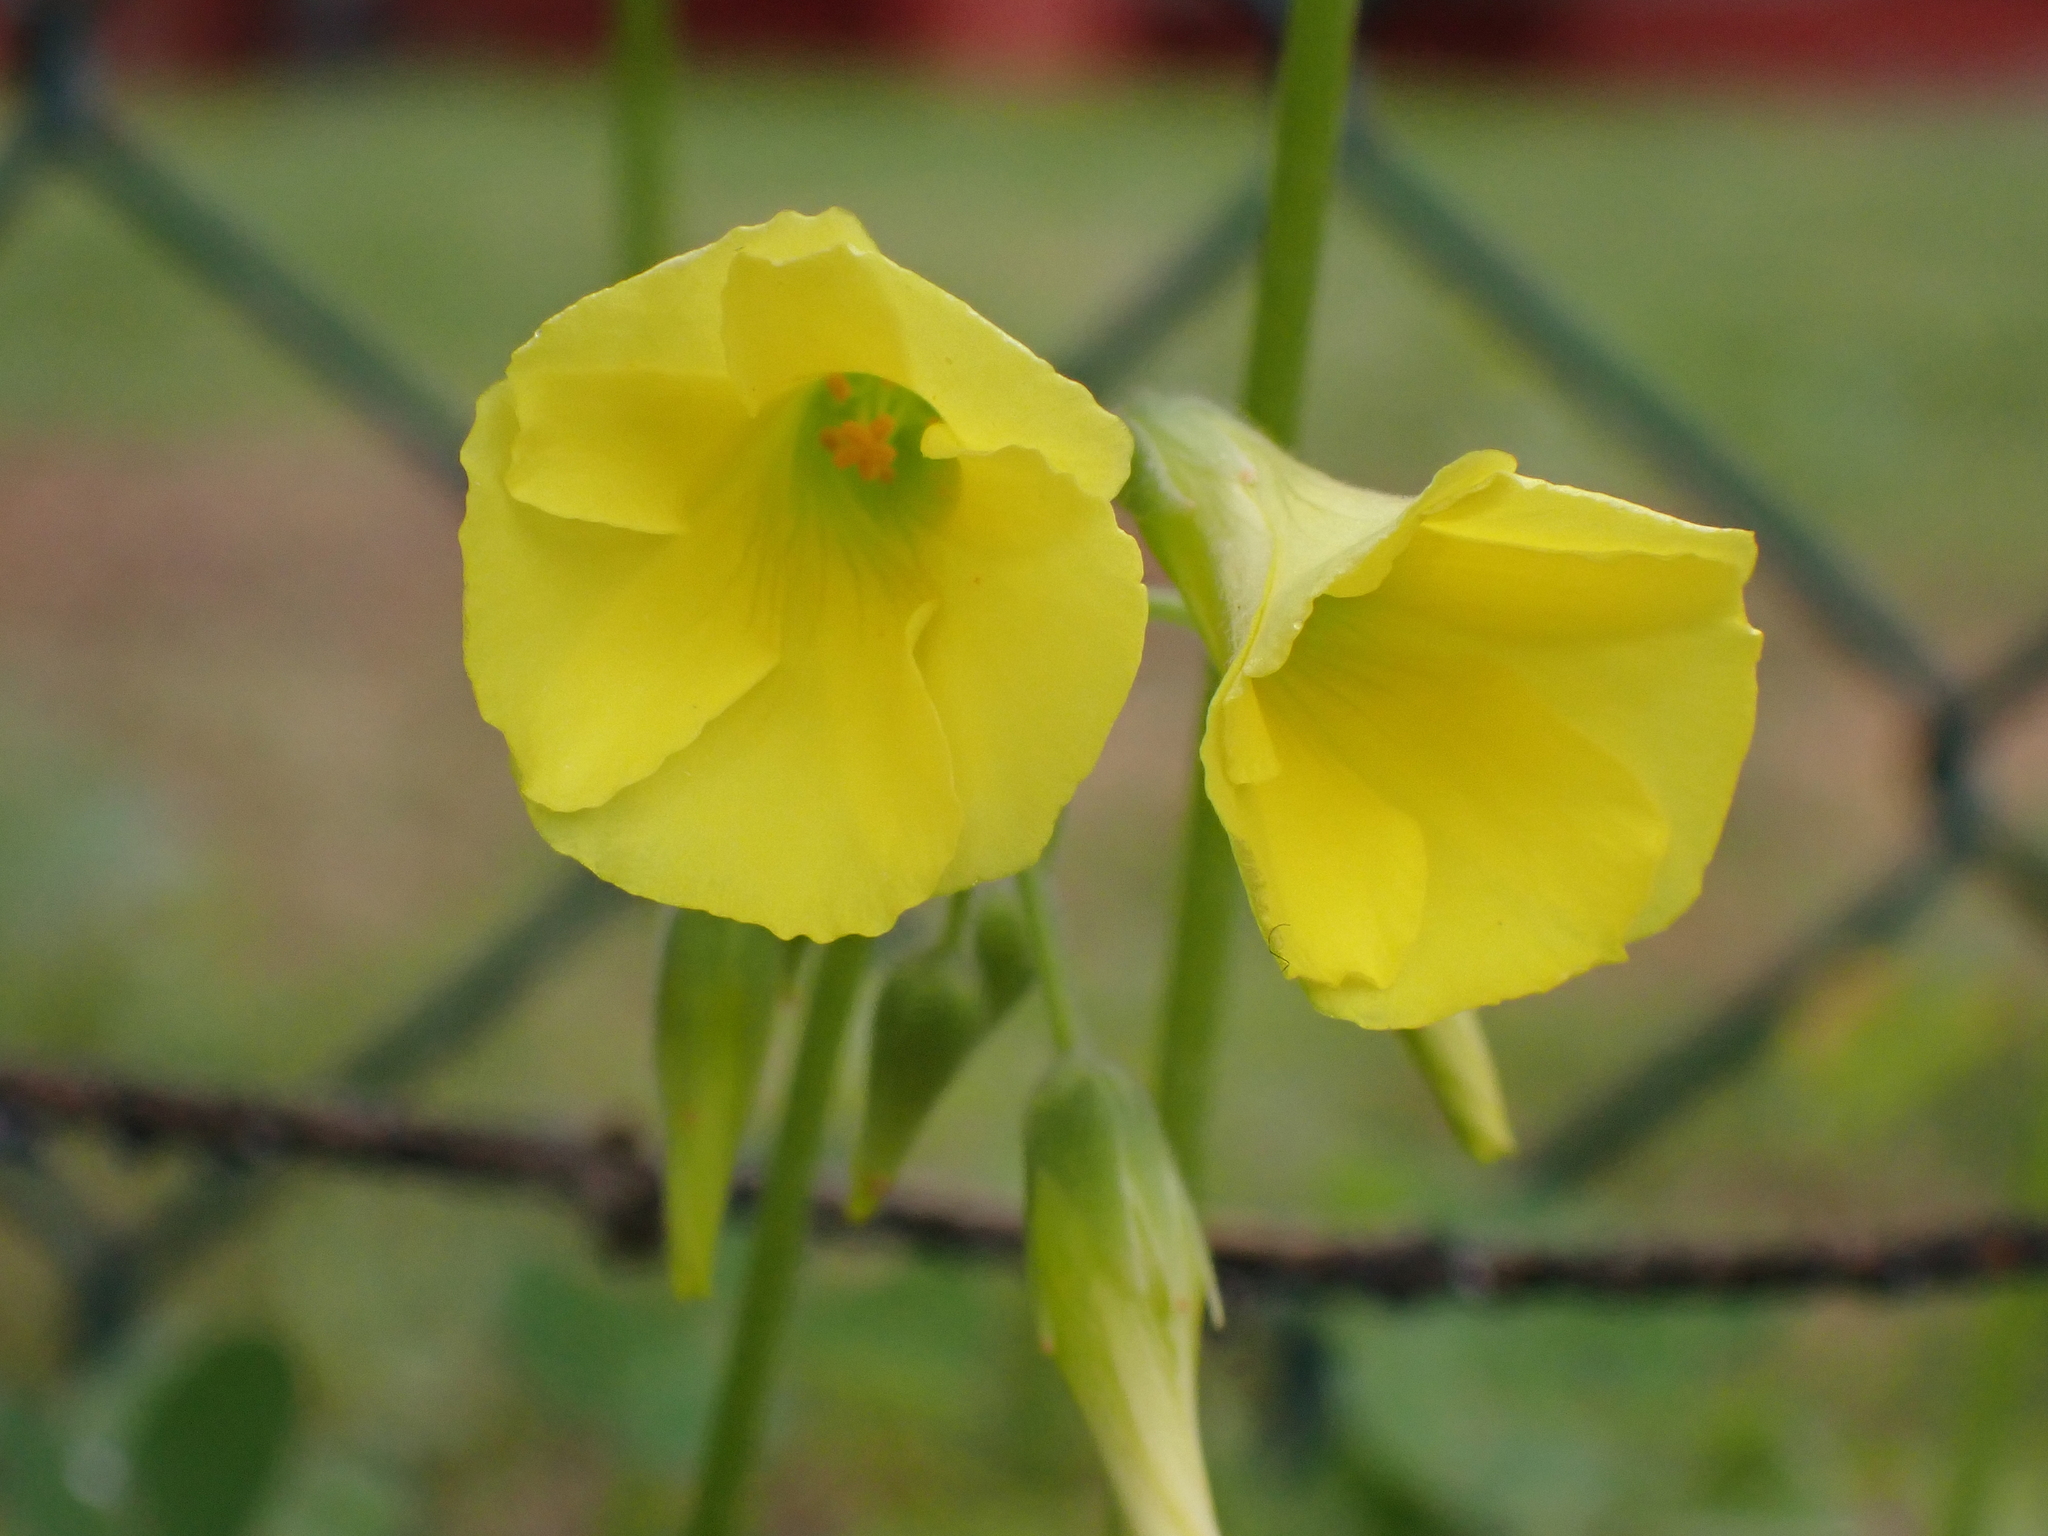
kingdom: Plantae
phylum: Tracheophyta
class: Magnoliopsida
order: Oxalidales
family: Oxalidaceae
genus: Oxalis
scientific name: Oxalis pes-caprae
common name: Bermuda-buttercup
